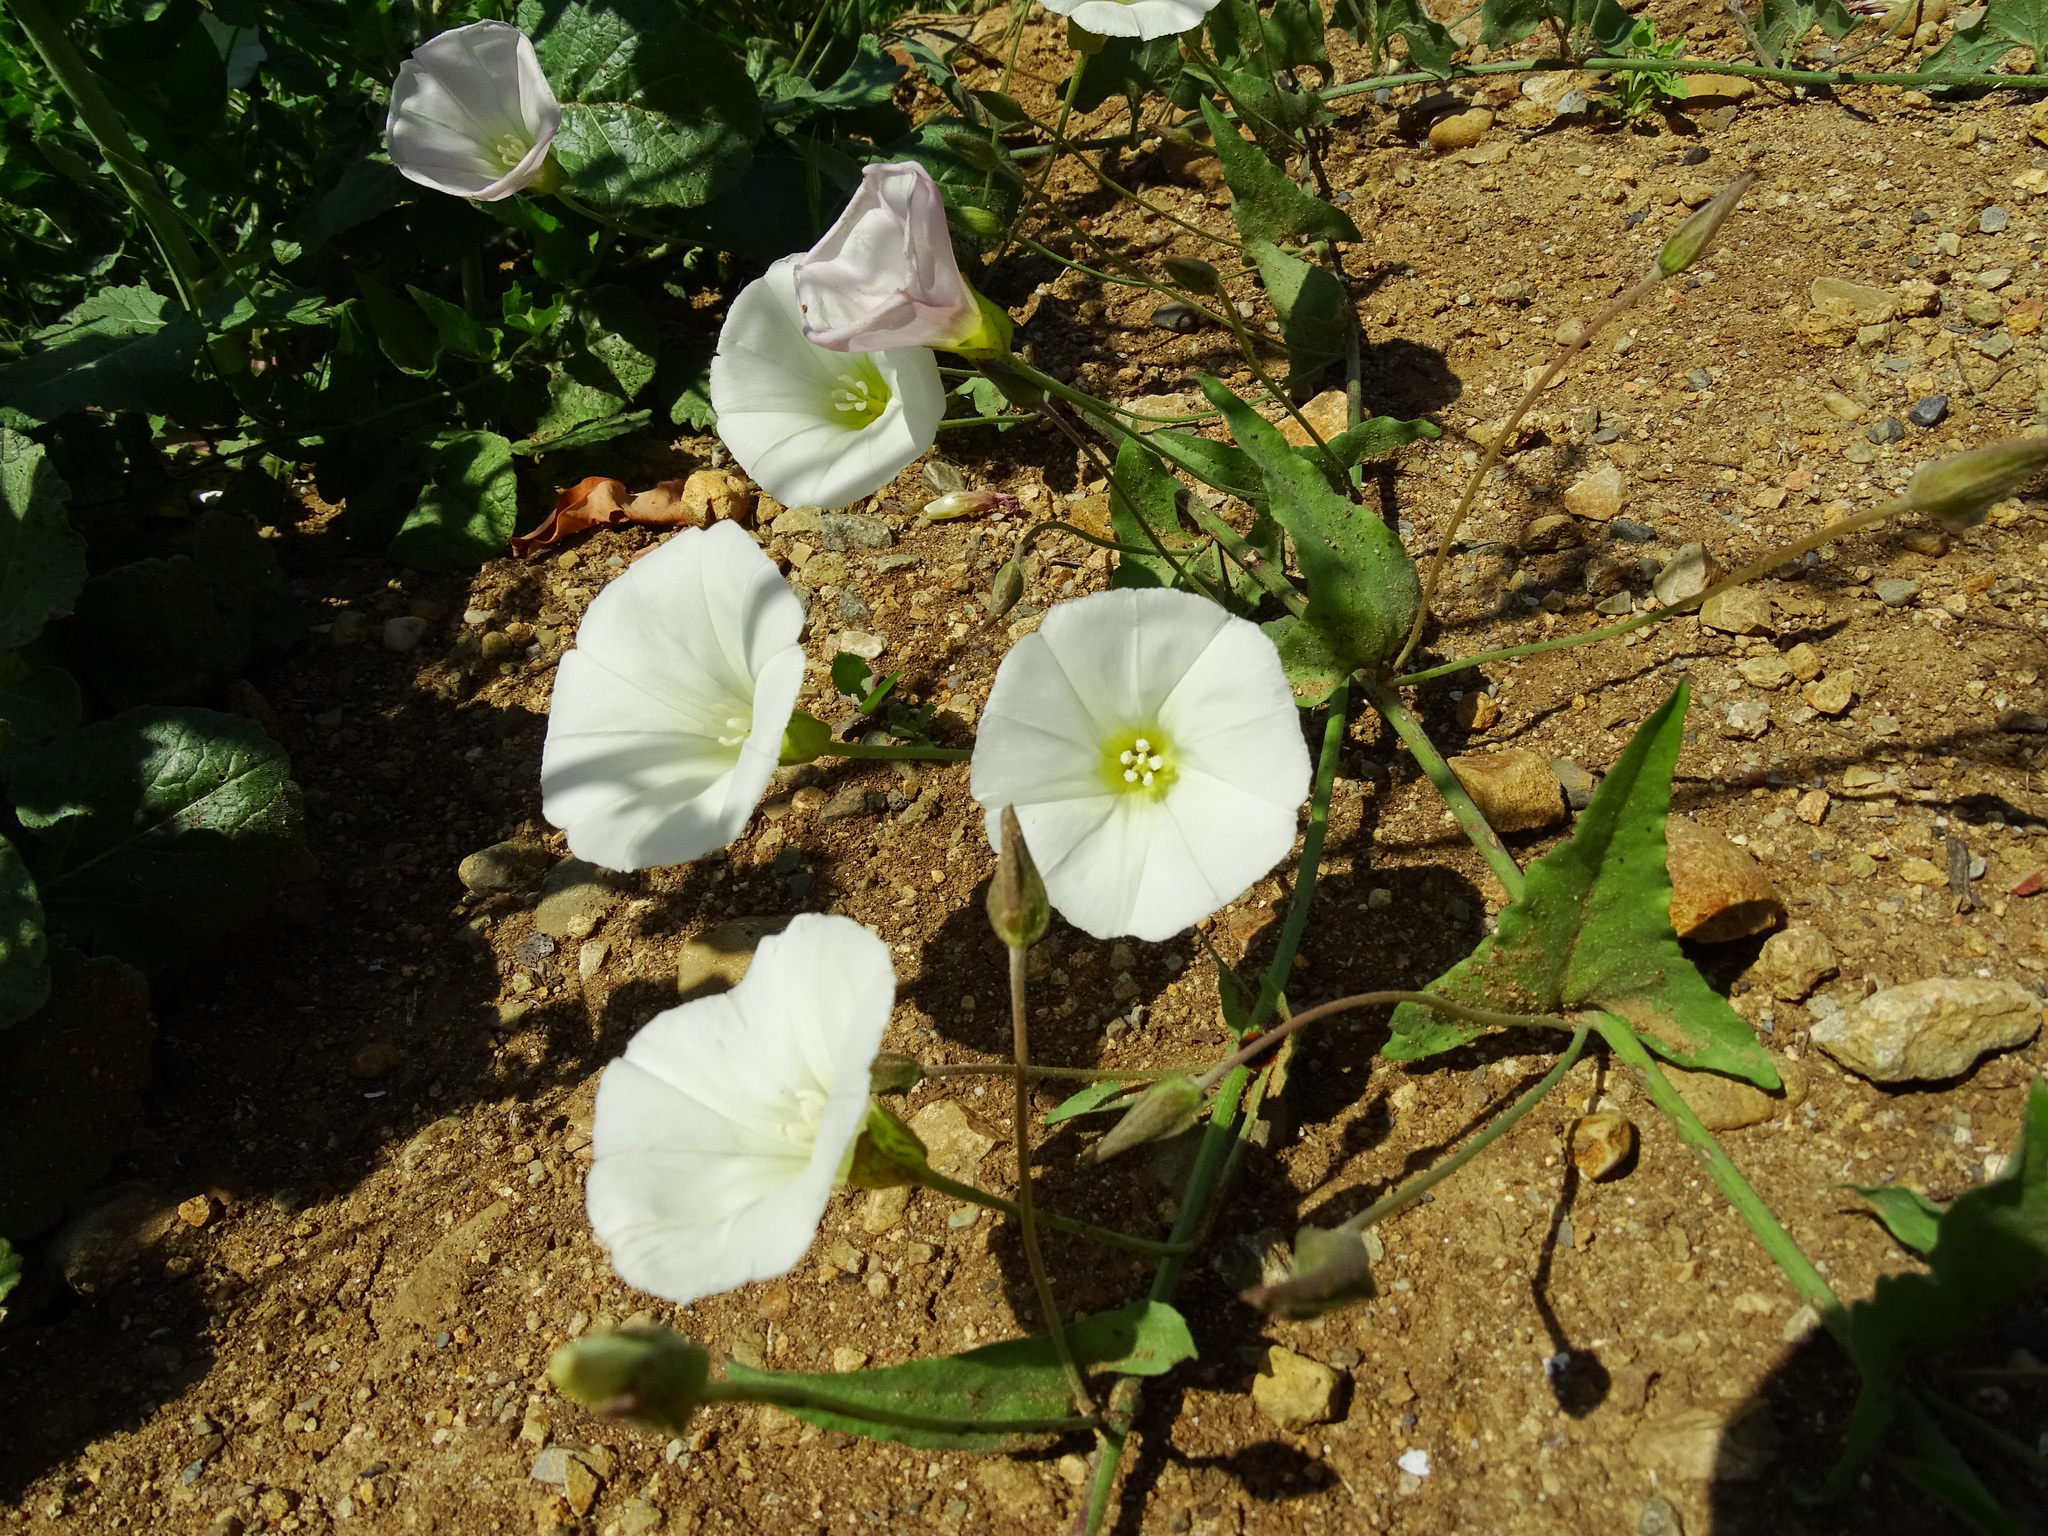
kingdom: Plantae
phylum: Tracheophyta
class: Magnoliopsida
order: Solanales
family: Convolvulaceae
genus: Calystegia
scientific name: Calystegia macrostegia
